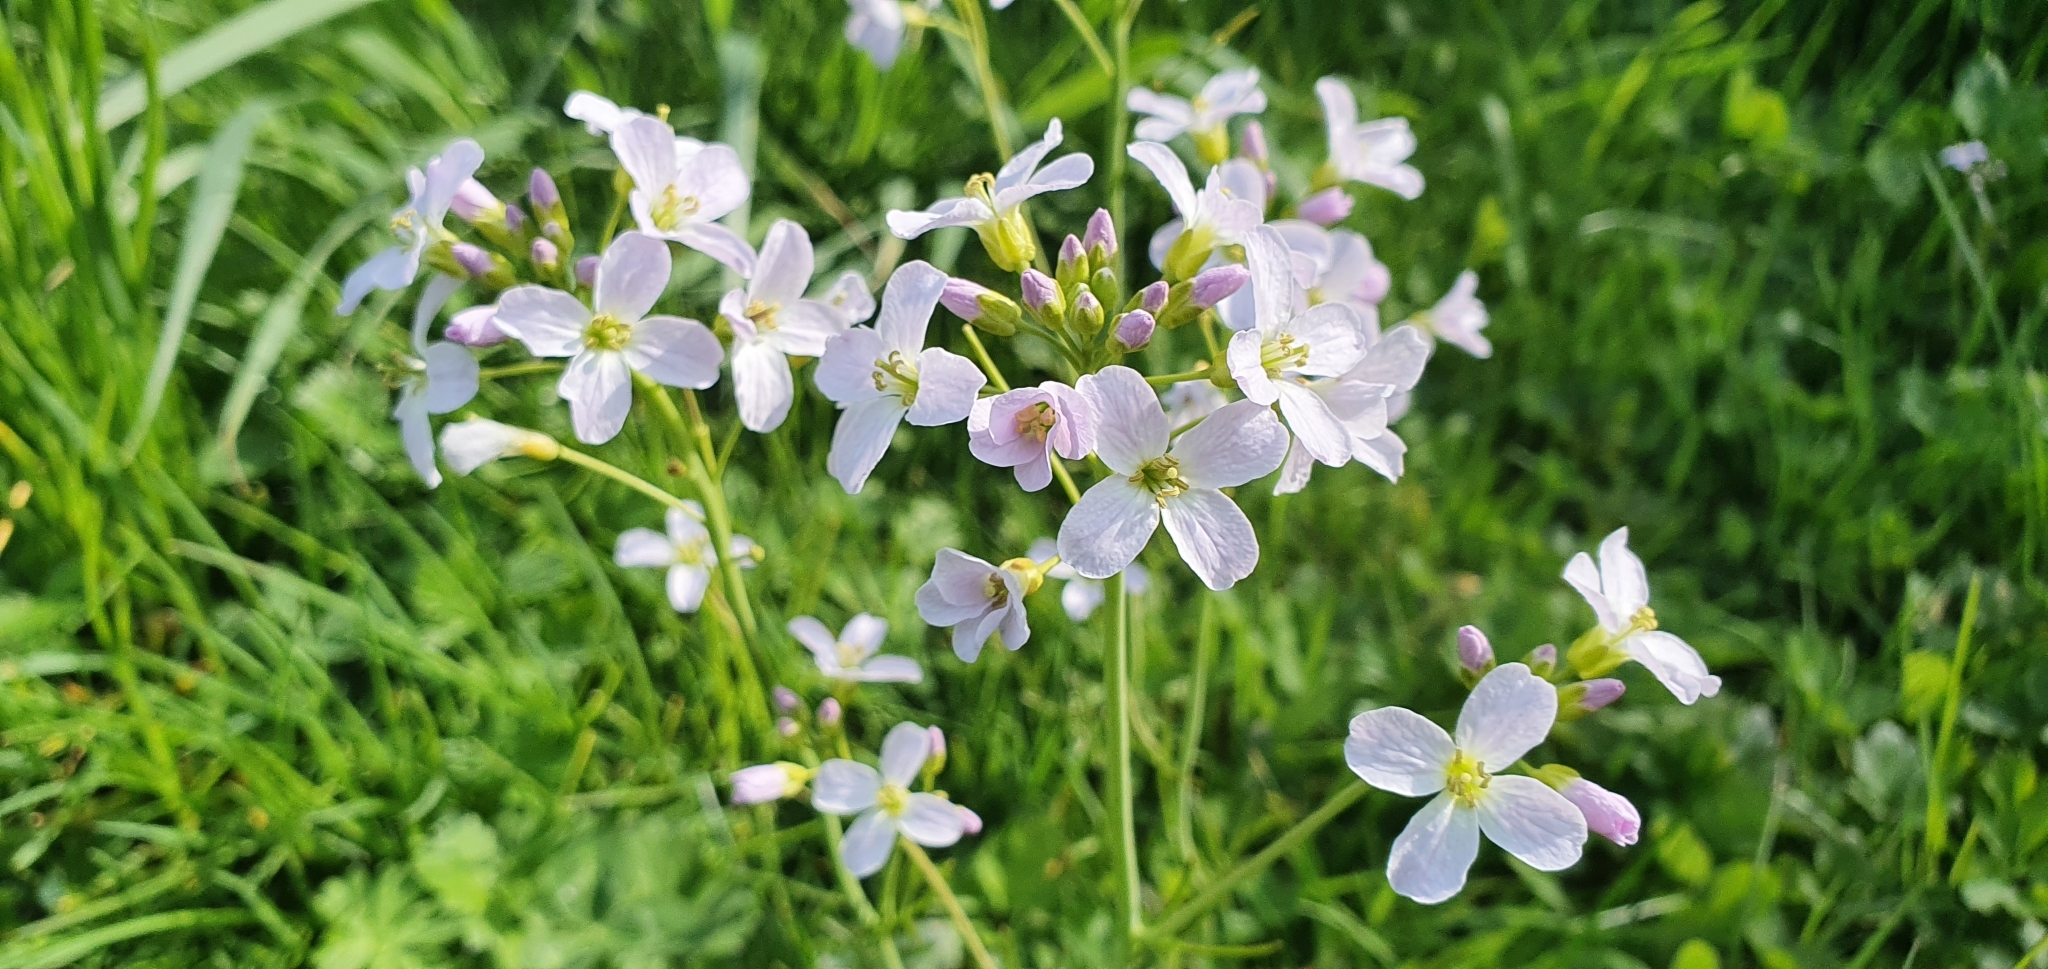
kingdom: Plantae
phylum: Tracheophyta
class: Magnoliopsida
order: Brassicales
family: Brassicaceae
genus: Cardamine
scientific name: Cardamine pratensis
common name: Cuckoo flower
